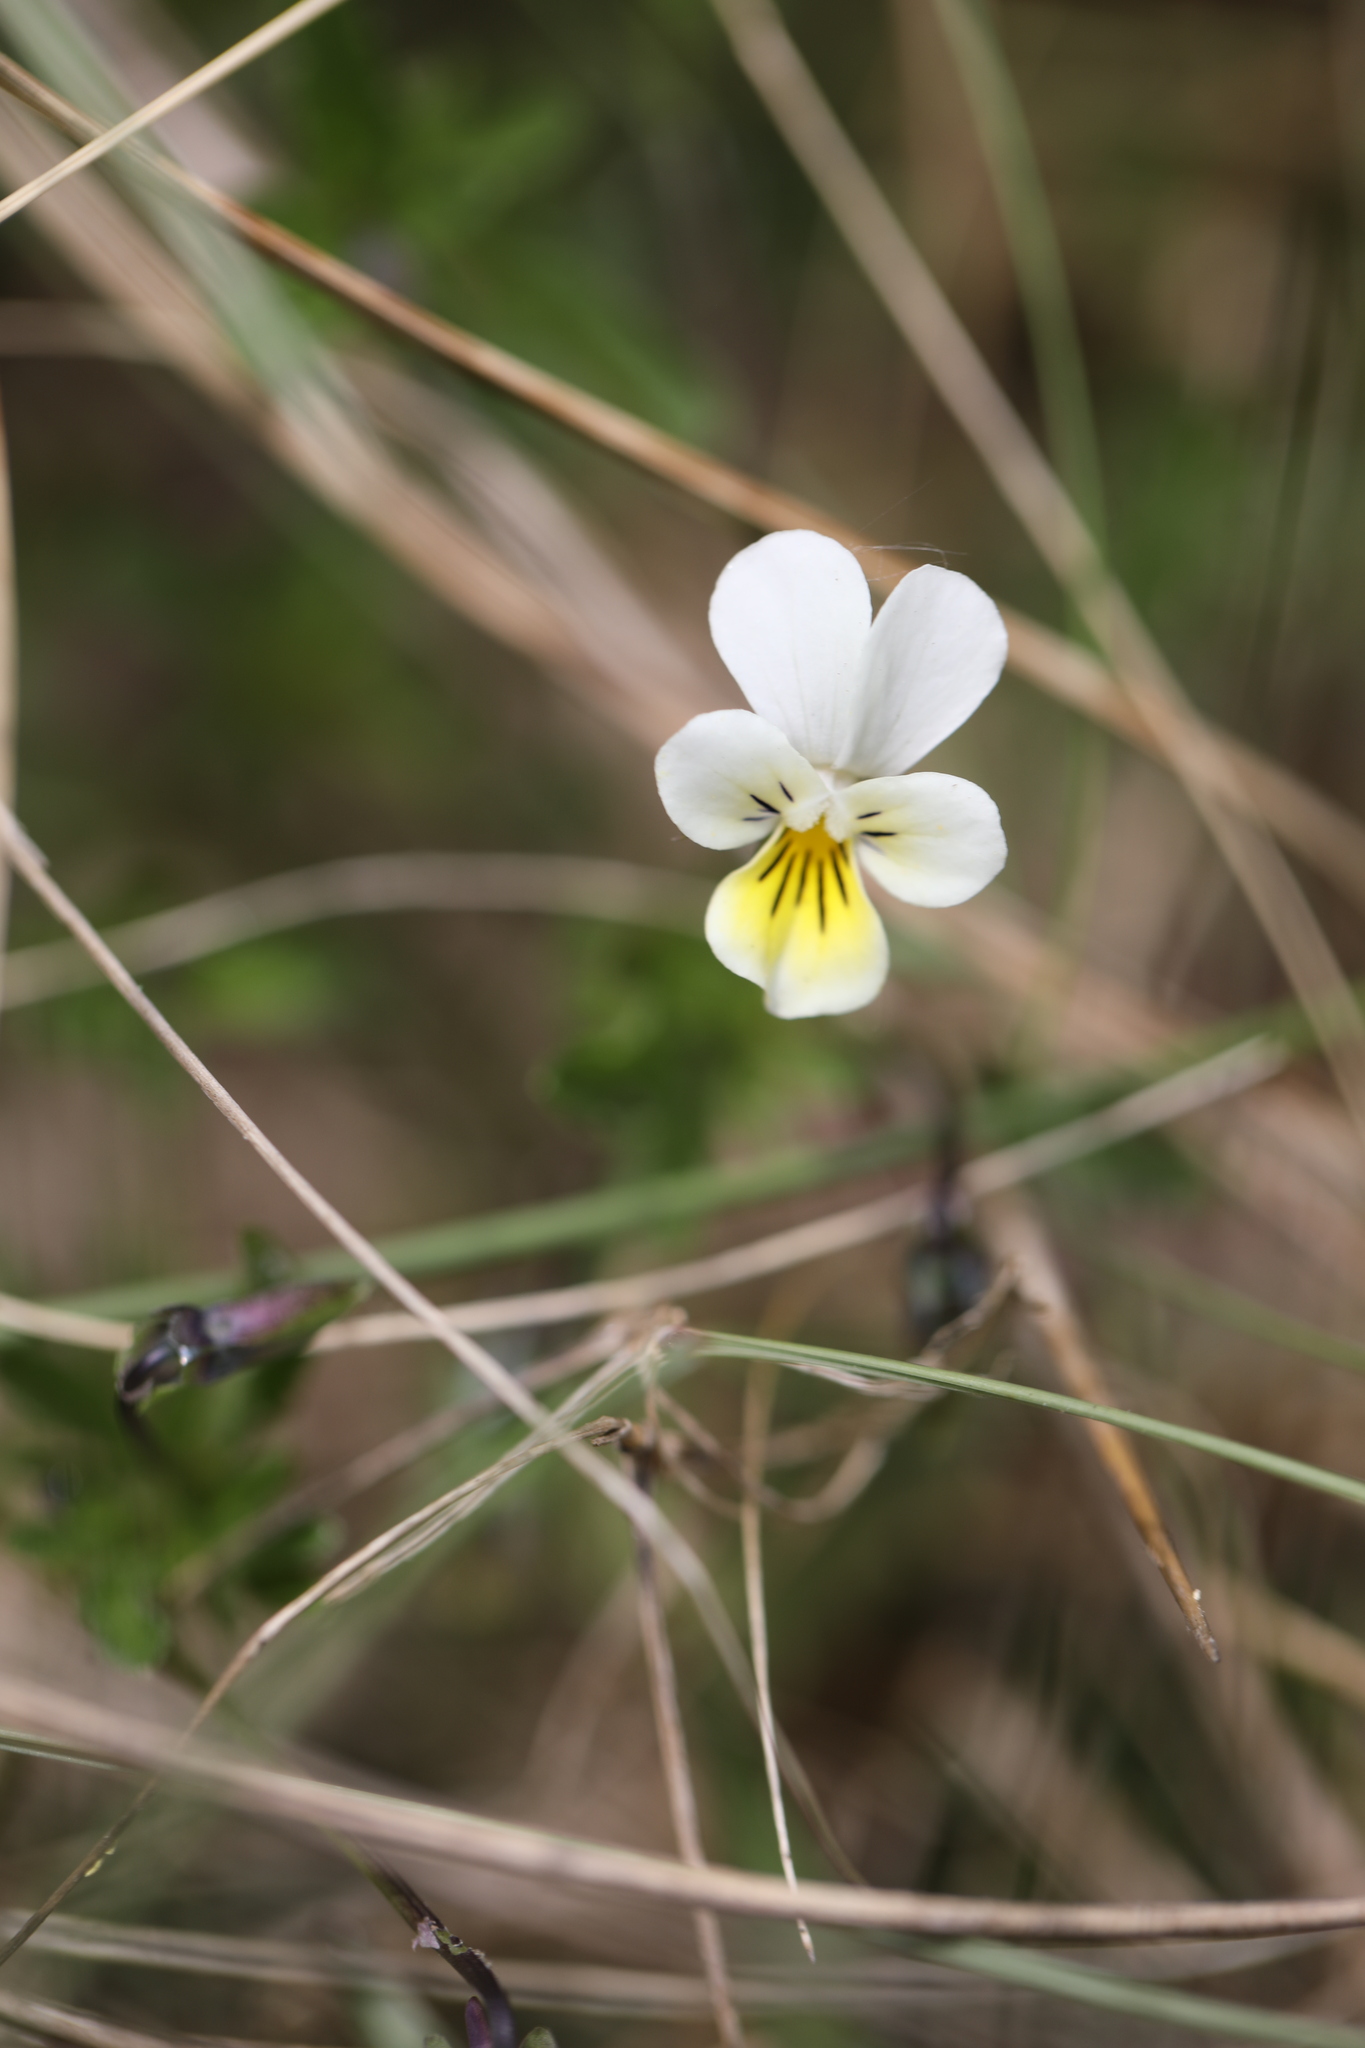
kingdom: Plantae
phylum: Tracheophyta
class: Magnoliopsida
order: Malpighiales
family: Violaceae
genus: Viola
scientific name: Viola arvensis
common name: Field pansy
